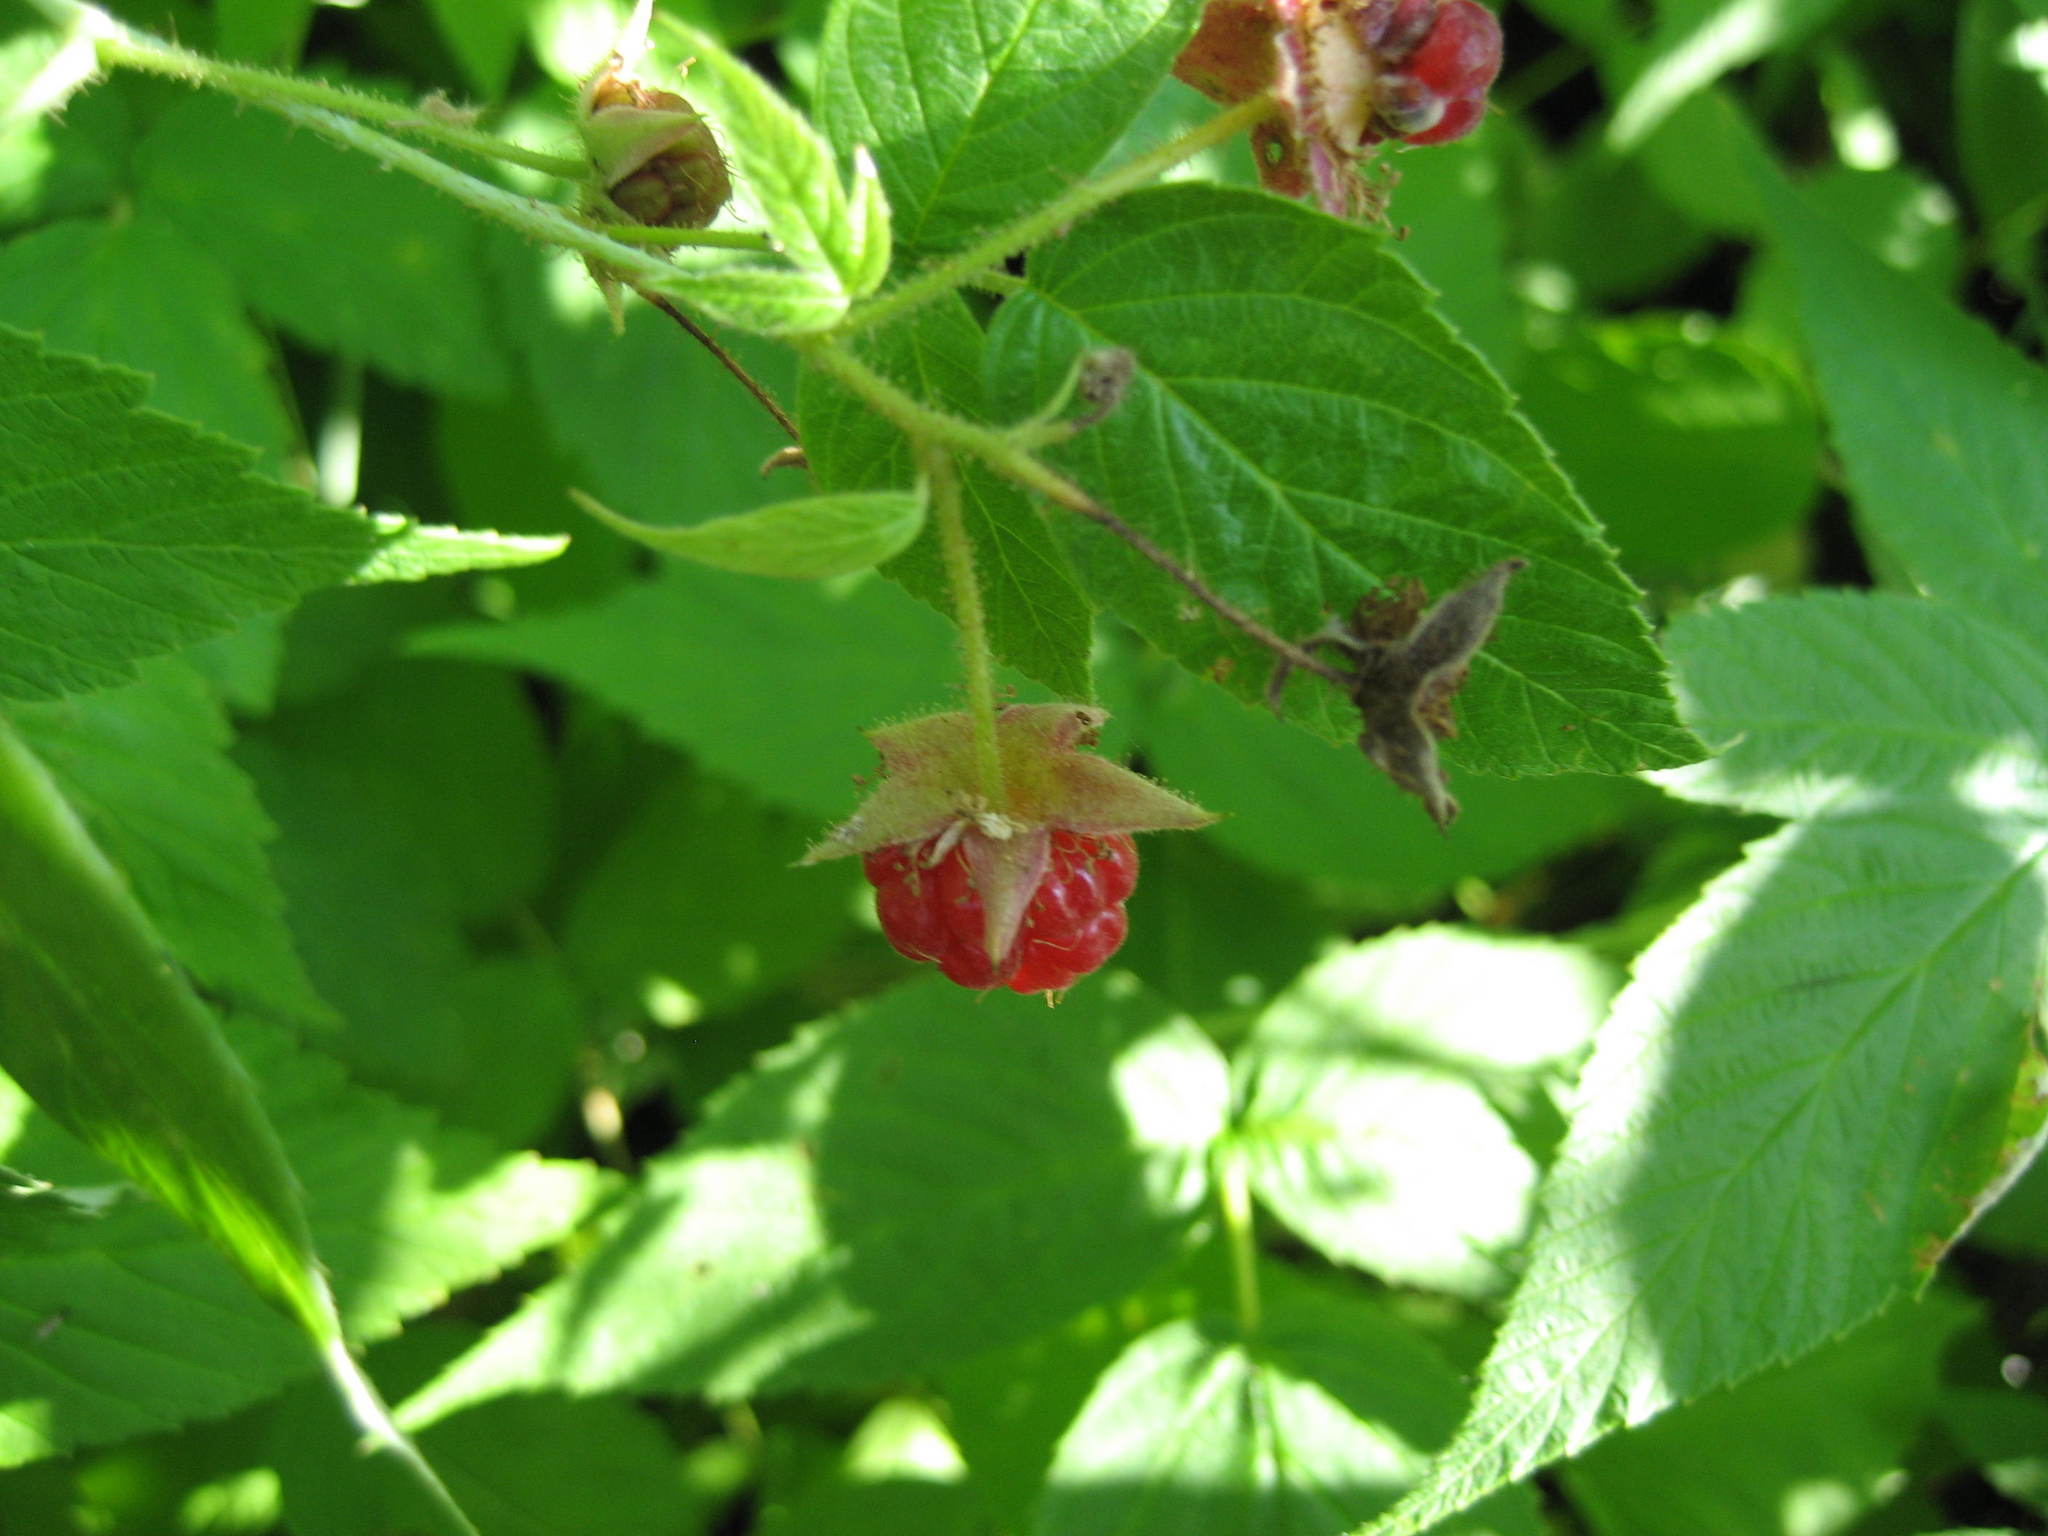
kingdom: Plantae
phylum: Tracheophyta
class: Magnoliopsida
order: Rosales
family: Rosaceae
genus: Rubus
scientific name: Rubus idaeus
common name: Raspberry
